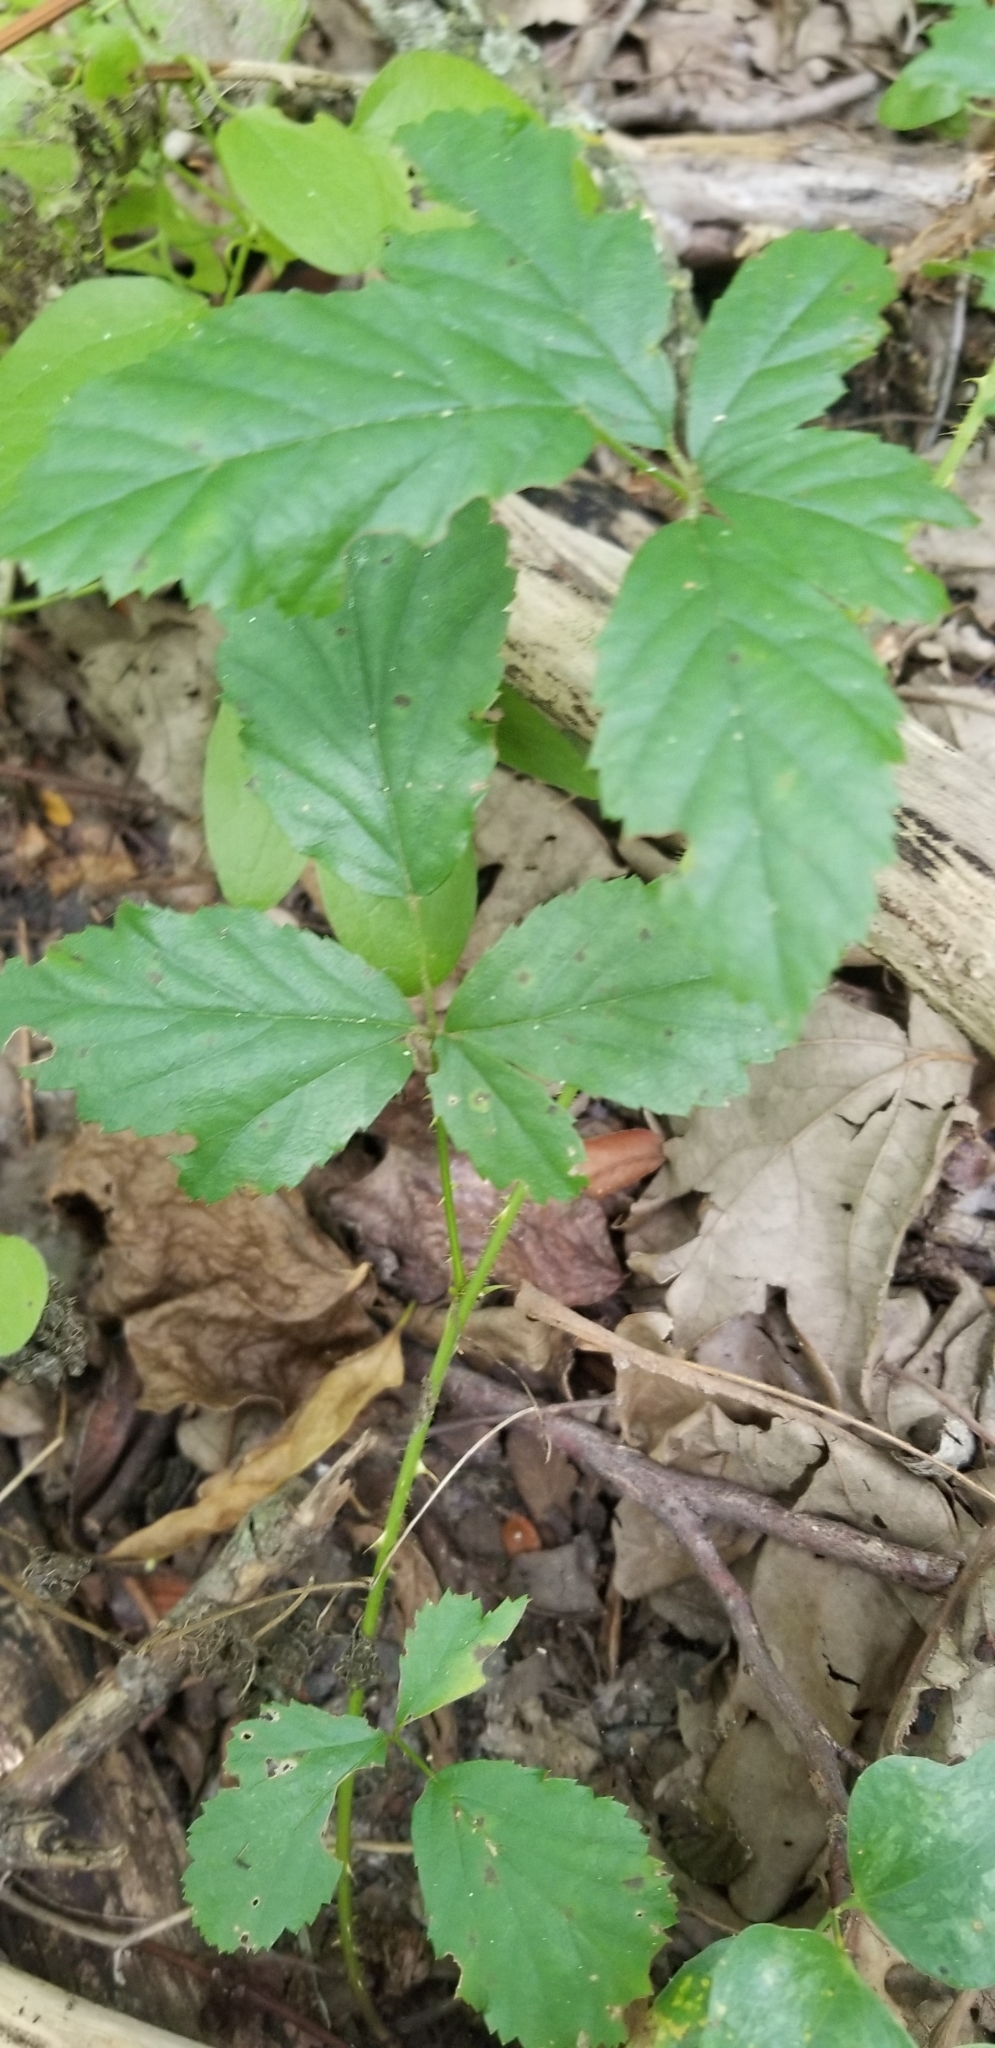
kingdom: Plantae
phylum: Tracheophyta
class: Magnoliopsida
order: Rosales
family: Rosaceae
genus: Rubus
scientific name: Rubus trivialis
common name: Southern dewberry
